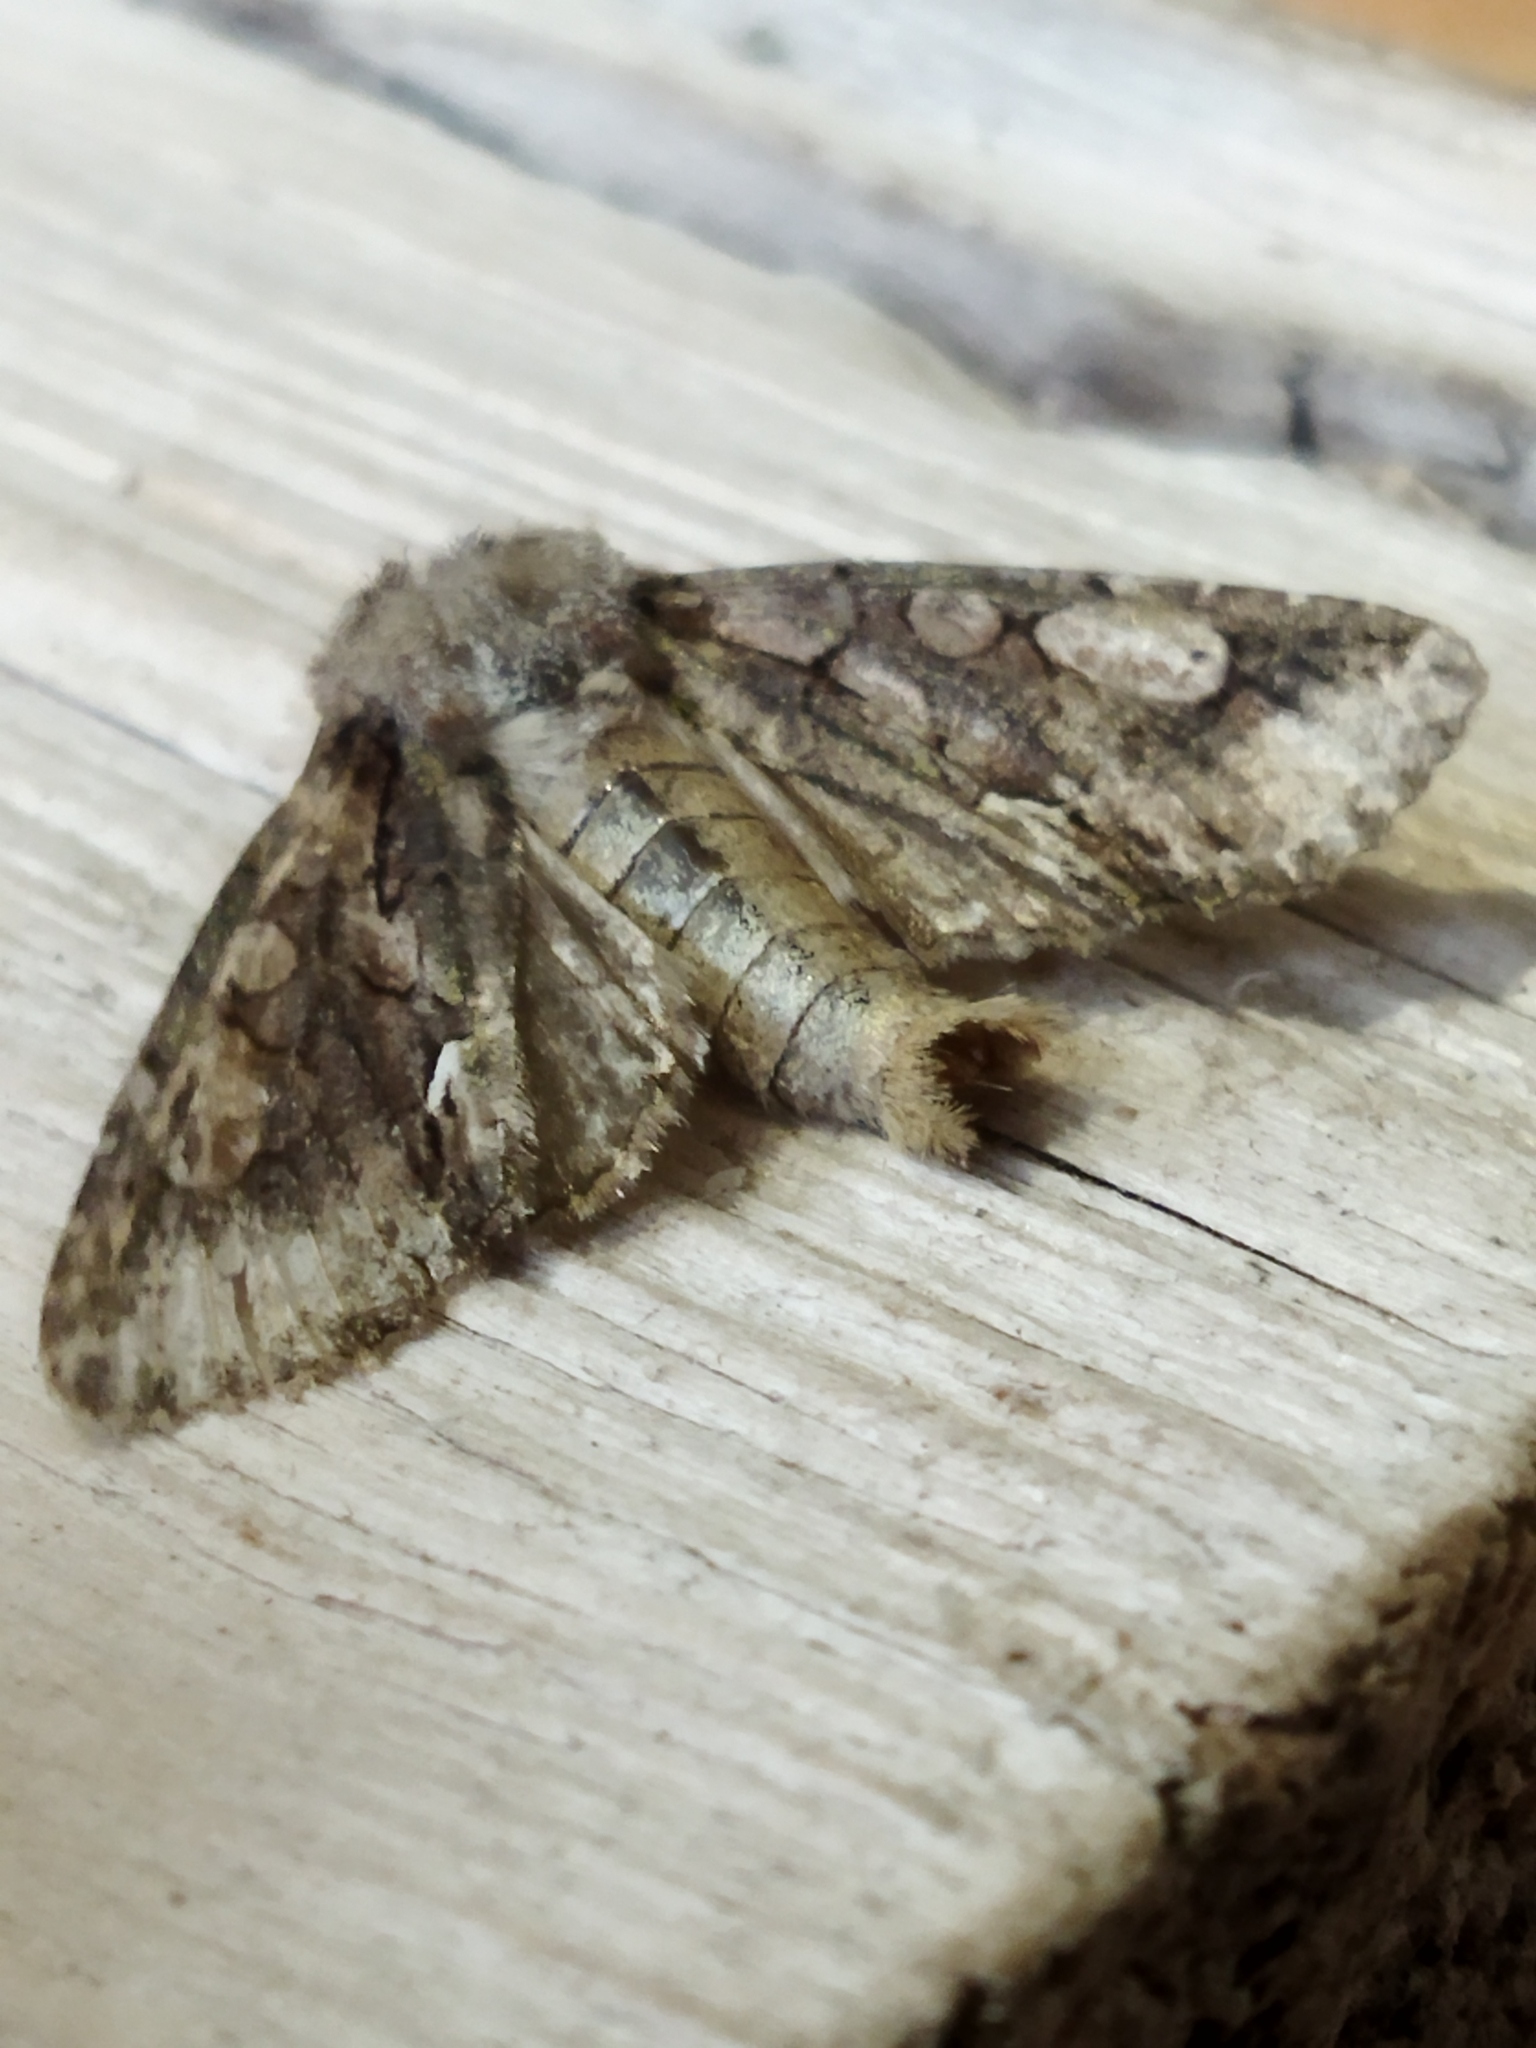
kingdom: Animalia
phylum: Arthropoda
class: Insecta
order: Lepidoptera
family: Noctuidae
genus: Allophyes
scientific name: Allophyes oxyacanthae
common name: Green-brindled crescent
